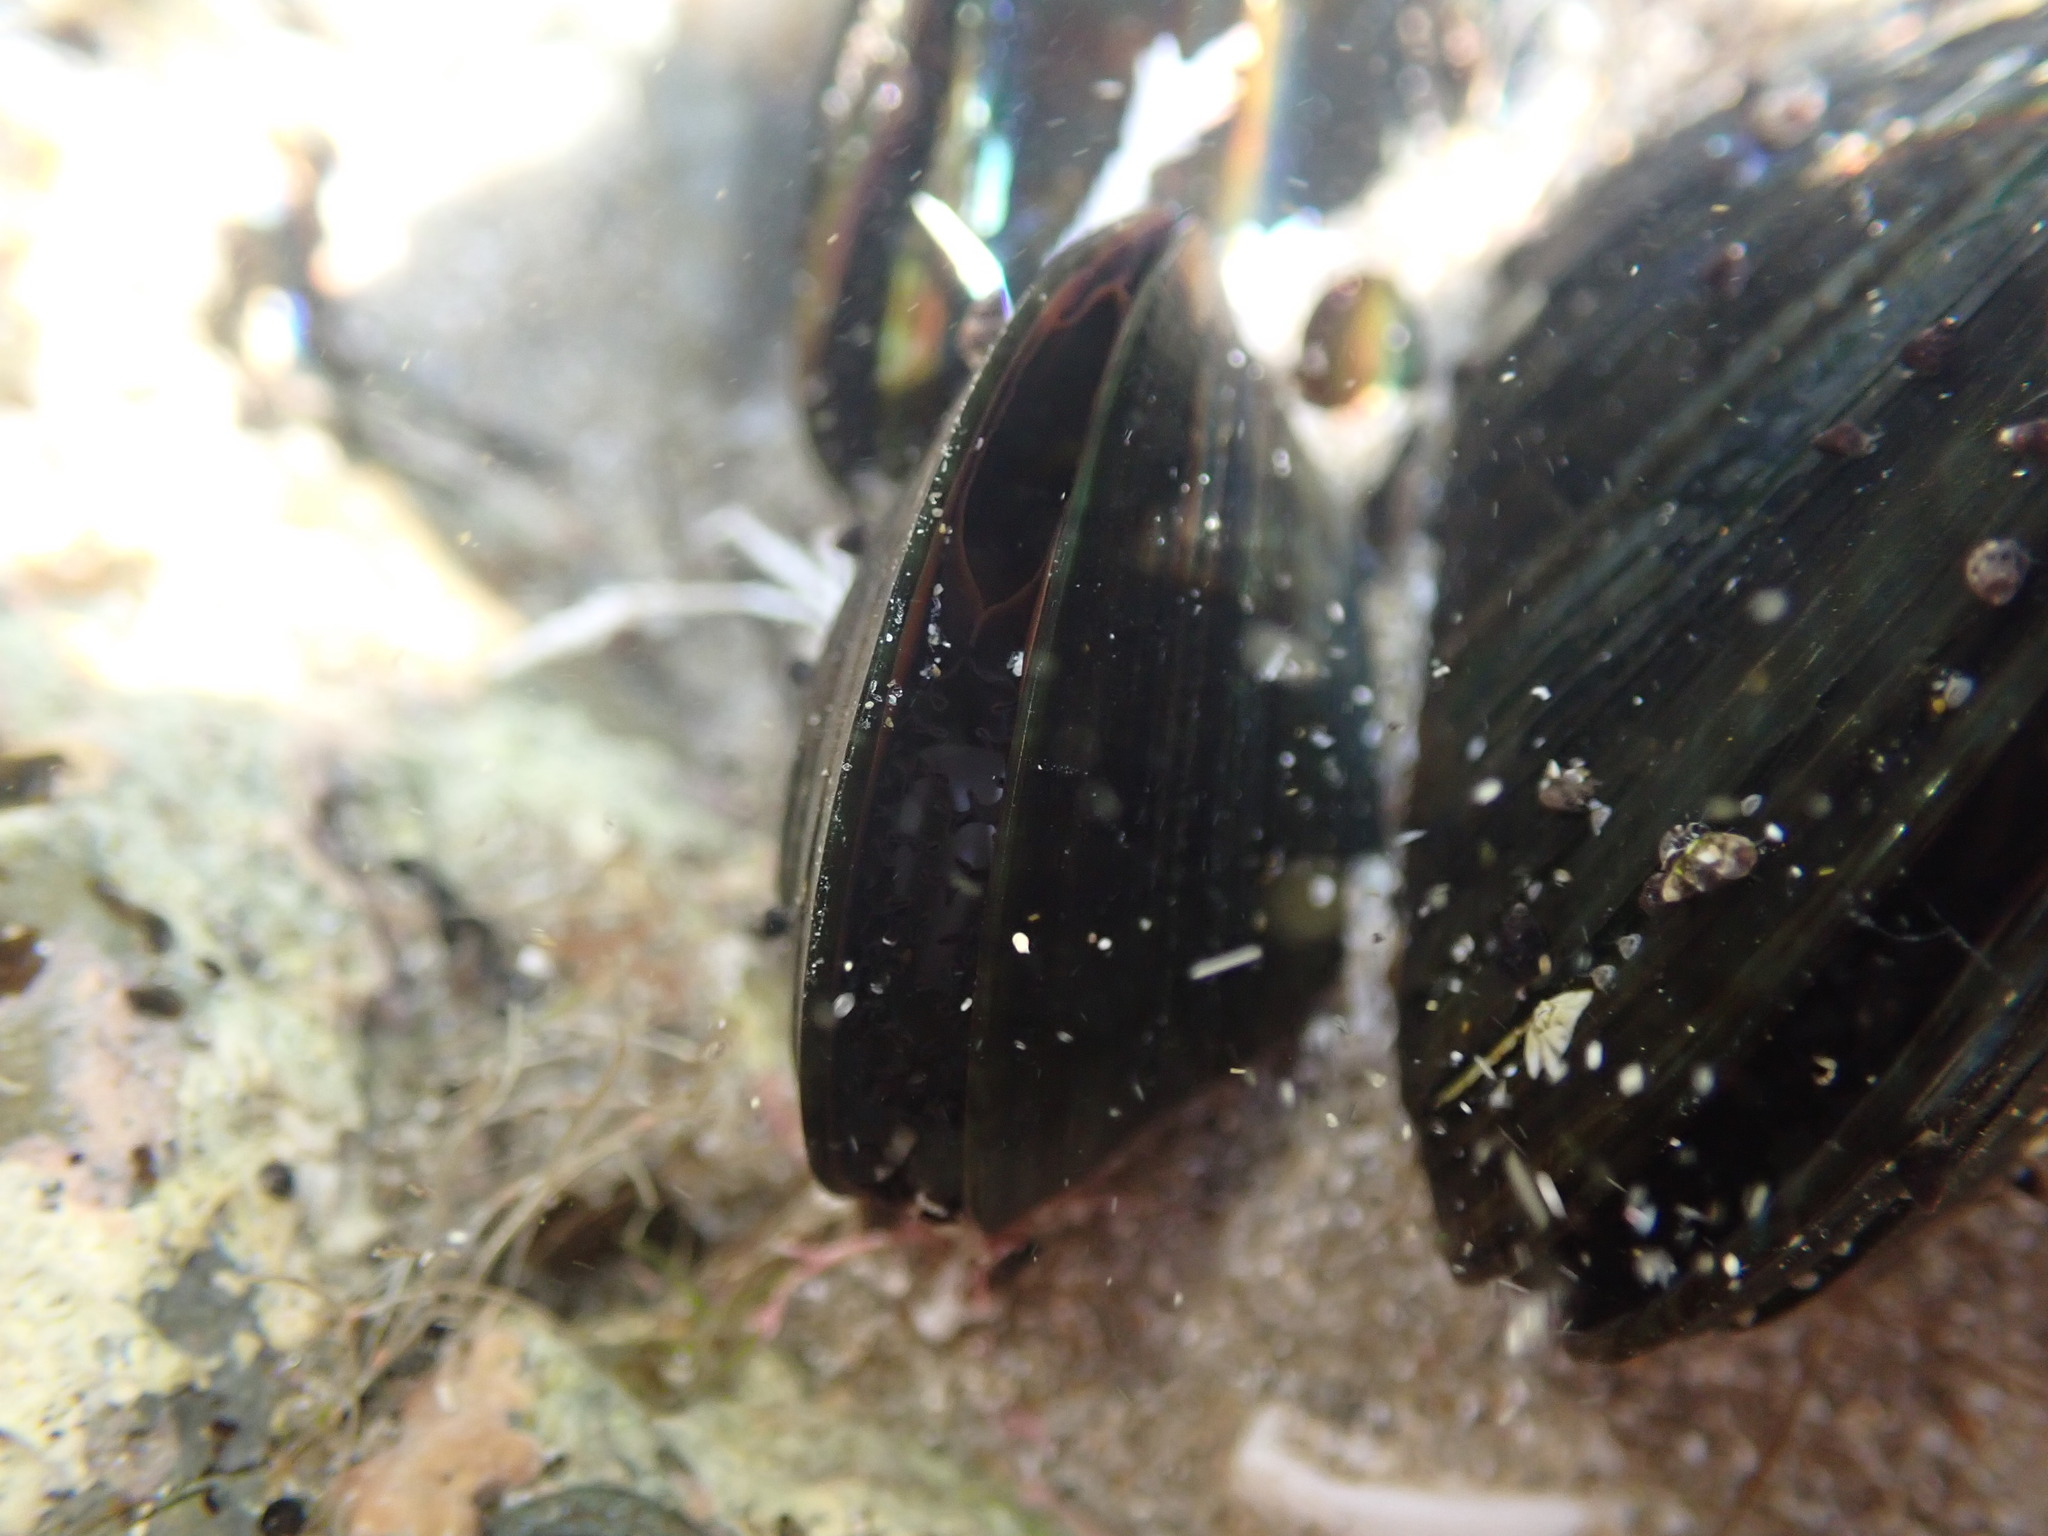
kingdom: Animalia
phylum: Mollusca
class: Bivalvia
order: Mytilida
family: Mytilidae
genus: Perna
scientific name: Perna canaliculus
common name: New zealand greenshelltm
